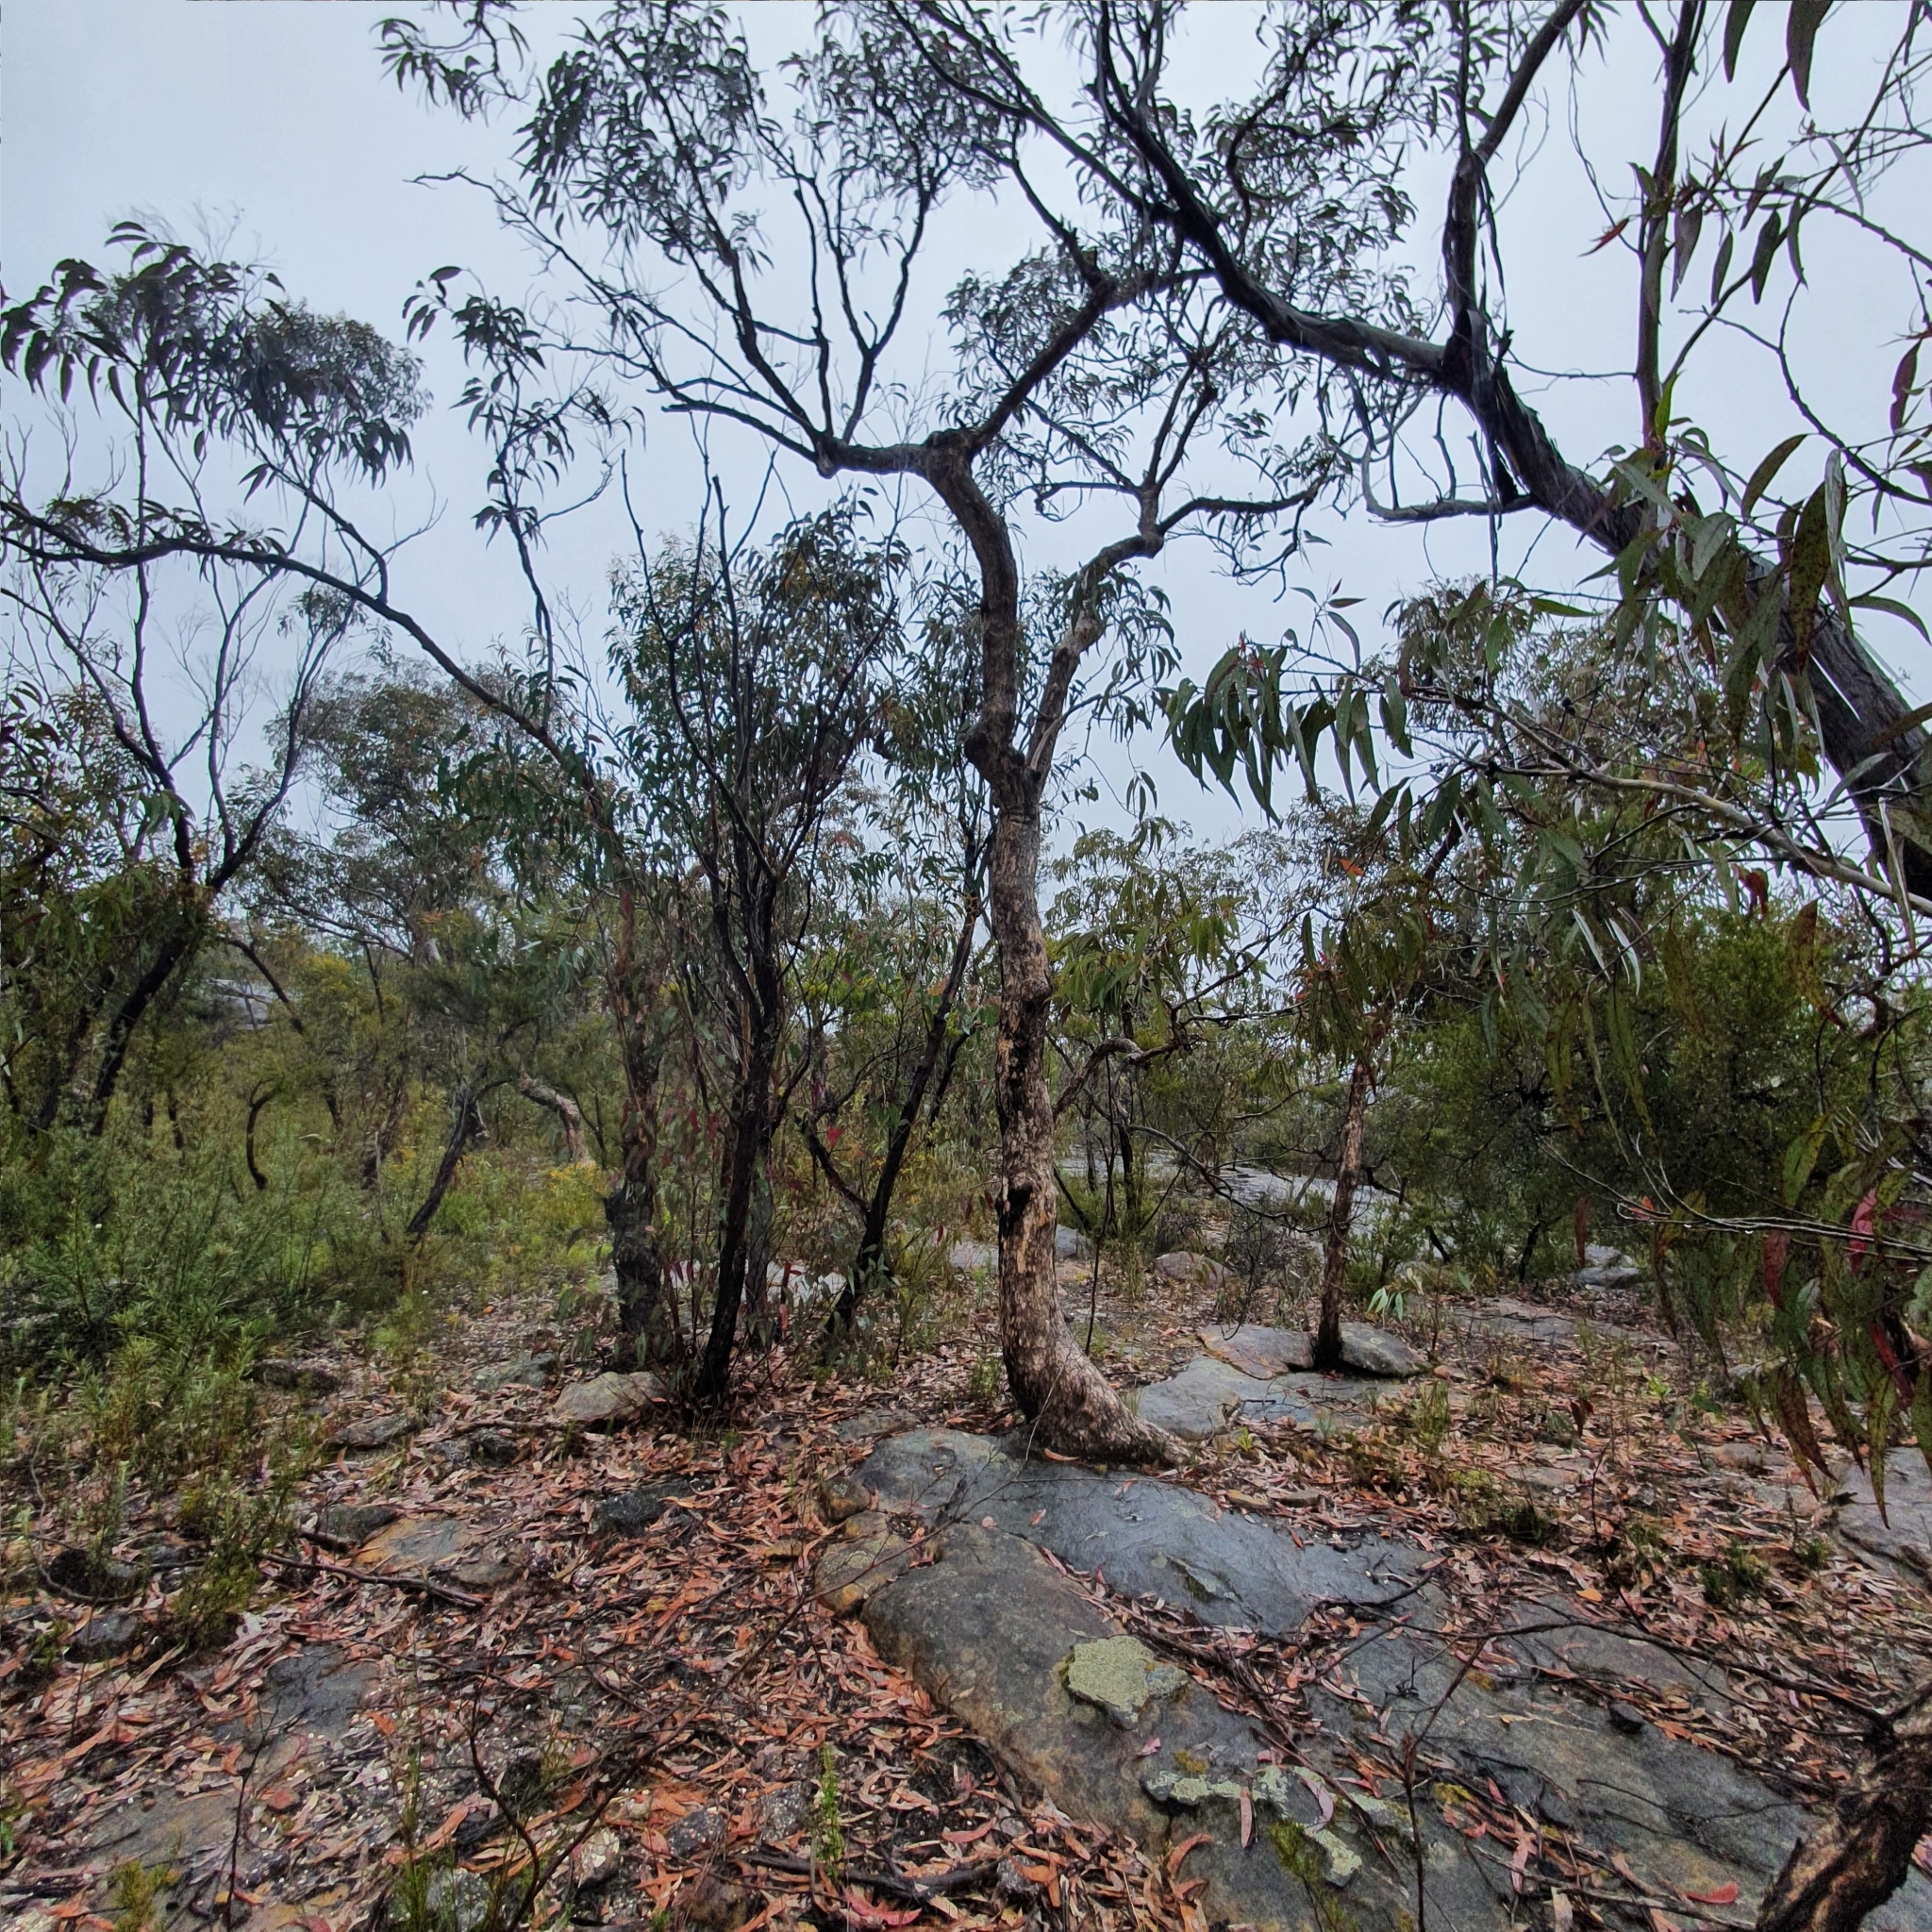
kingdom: Plantae
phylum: Tracheophyta
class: Magnoliopsida
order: Myrtales
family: Myrtaceae
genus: Corymbia
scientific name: Corymbia eximia
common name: Yellow bloodwood
